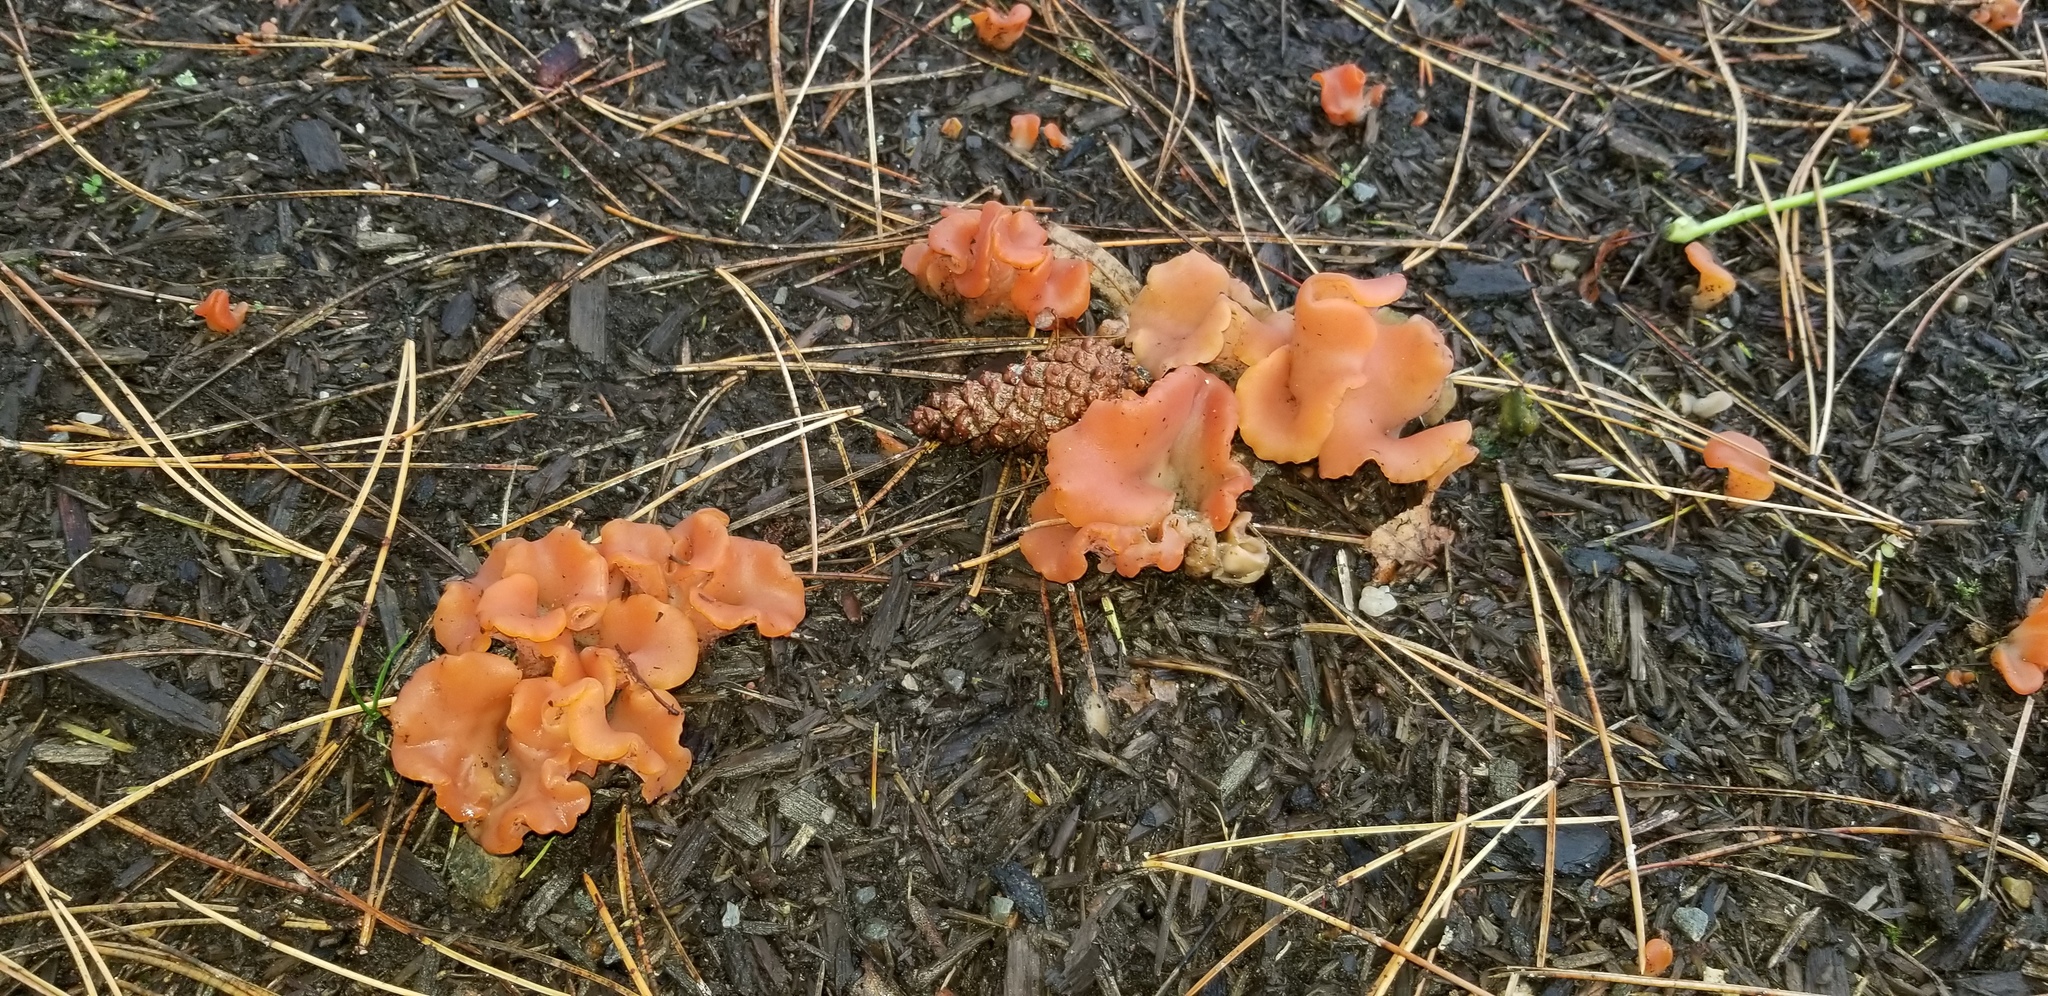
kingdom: Fungi
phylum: Basidiomycota
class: Agaricomycetes
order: Auriculariales
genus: Guepinia
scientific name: Guepinia helvelloides
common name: Salmon salad
